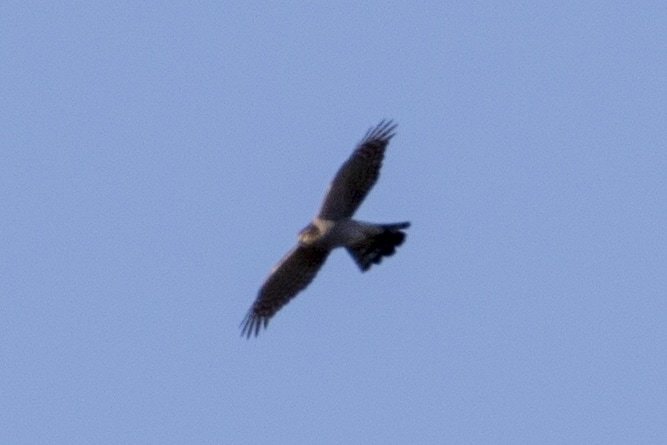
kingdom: Animalia
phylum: Chordata
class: Aves
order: Accipitriformes
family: Accipitridae
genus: Accipiter
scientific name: Accipiter nisus
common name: Eurasian sparrowhawk
